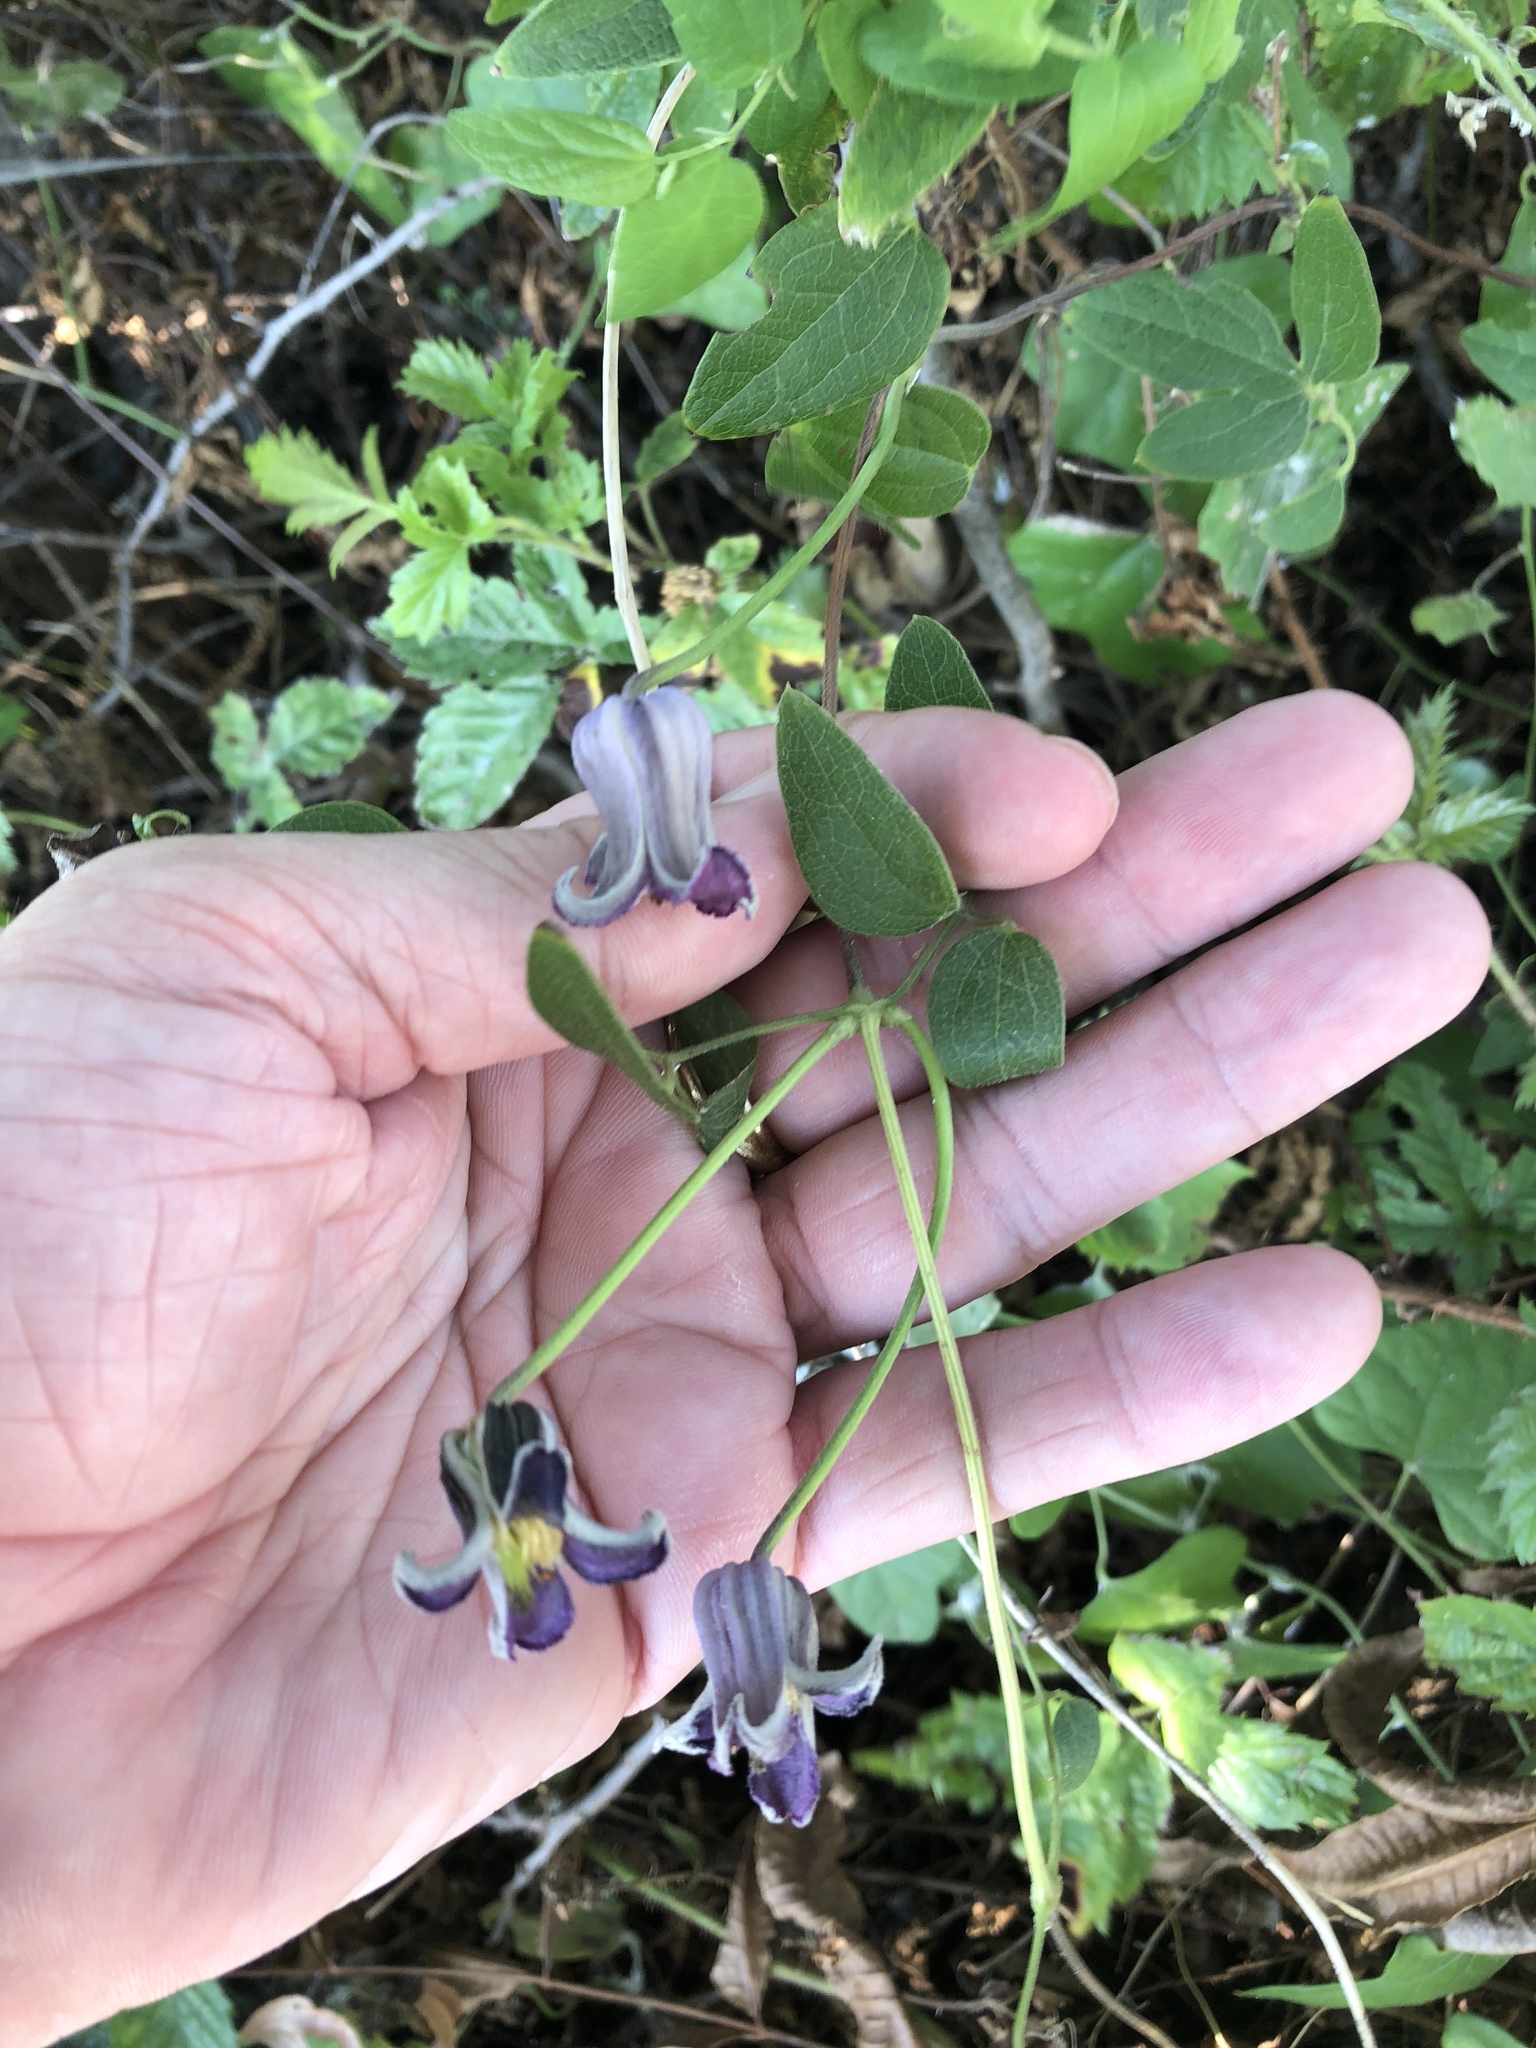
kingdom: Plantae
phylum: Tracheophyta
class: Magnoliopsida
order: Ranunculales
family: Ranunculaceae
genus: Clematis
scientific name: Clematis pitcheri
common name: Bellflower clematis
